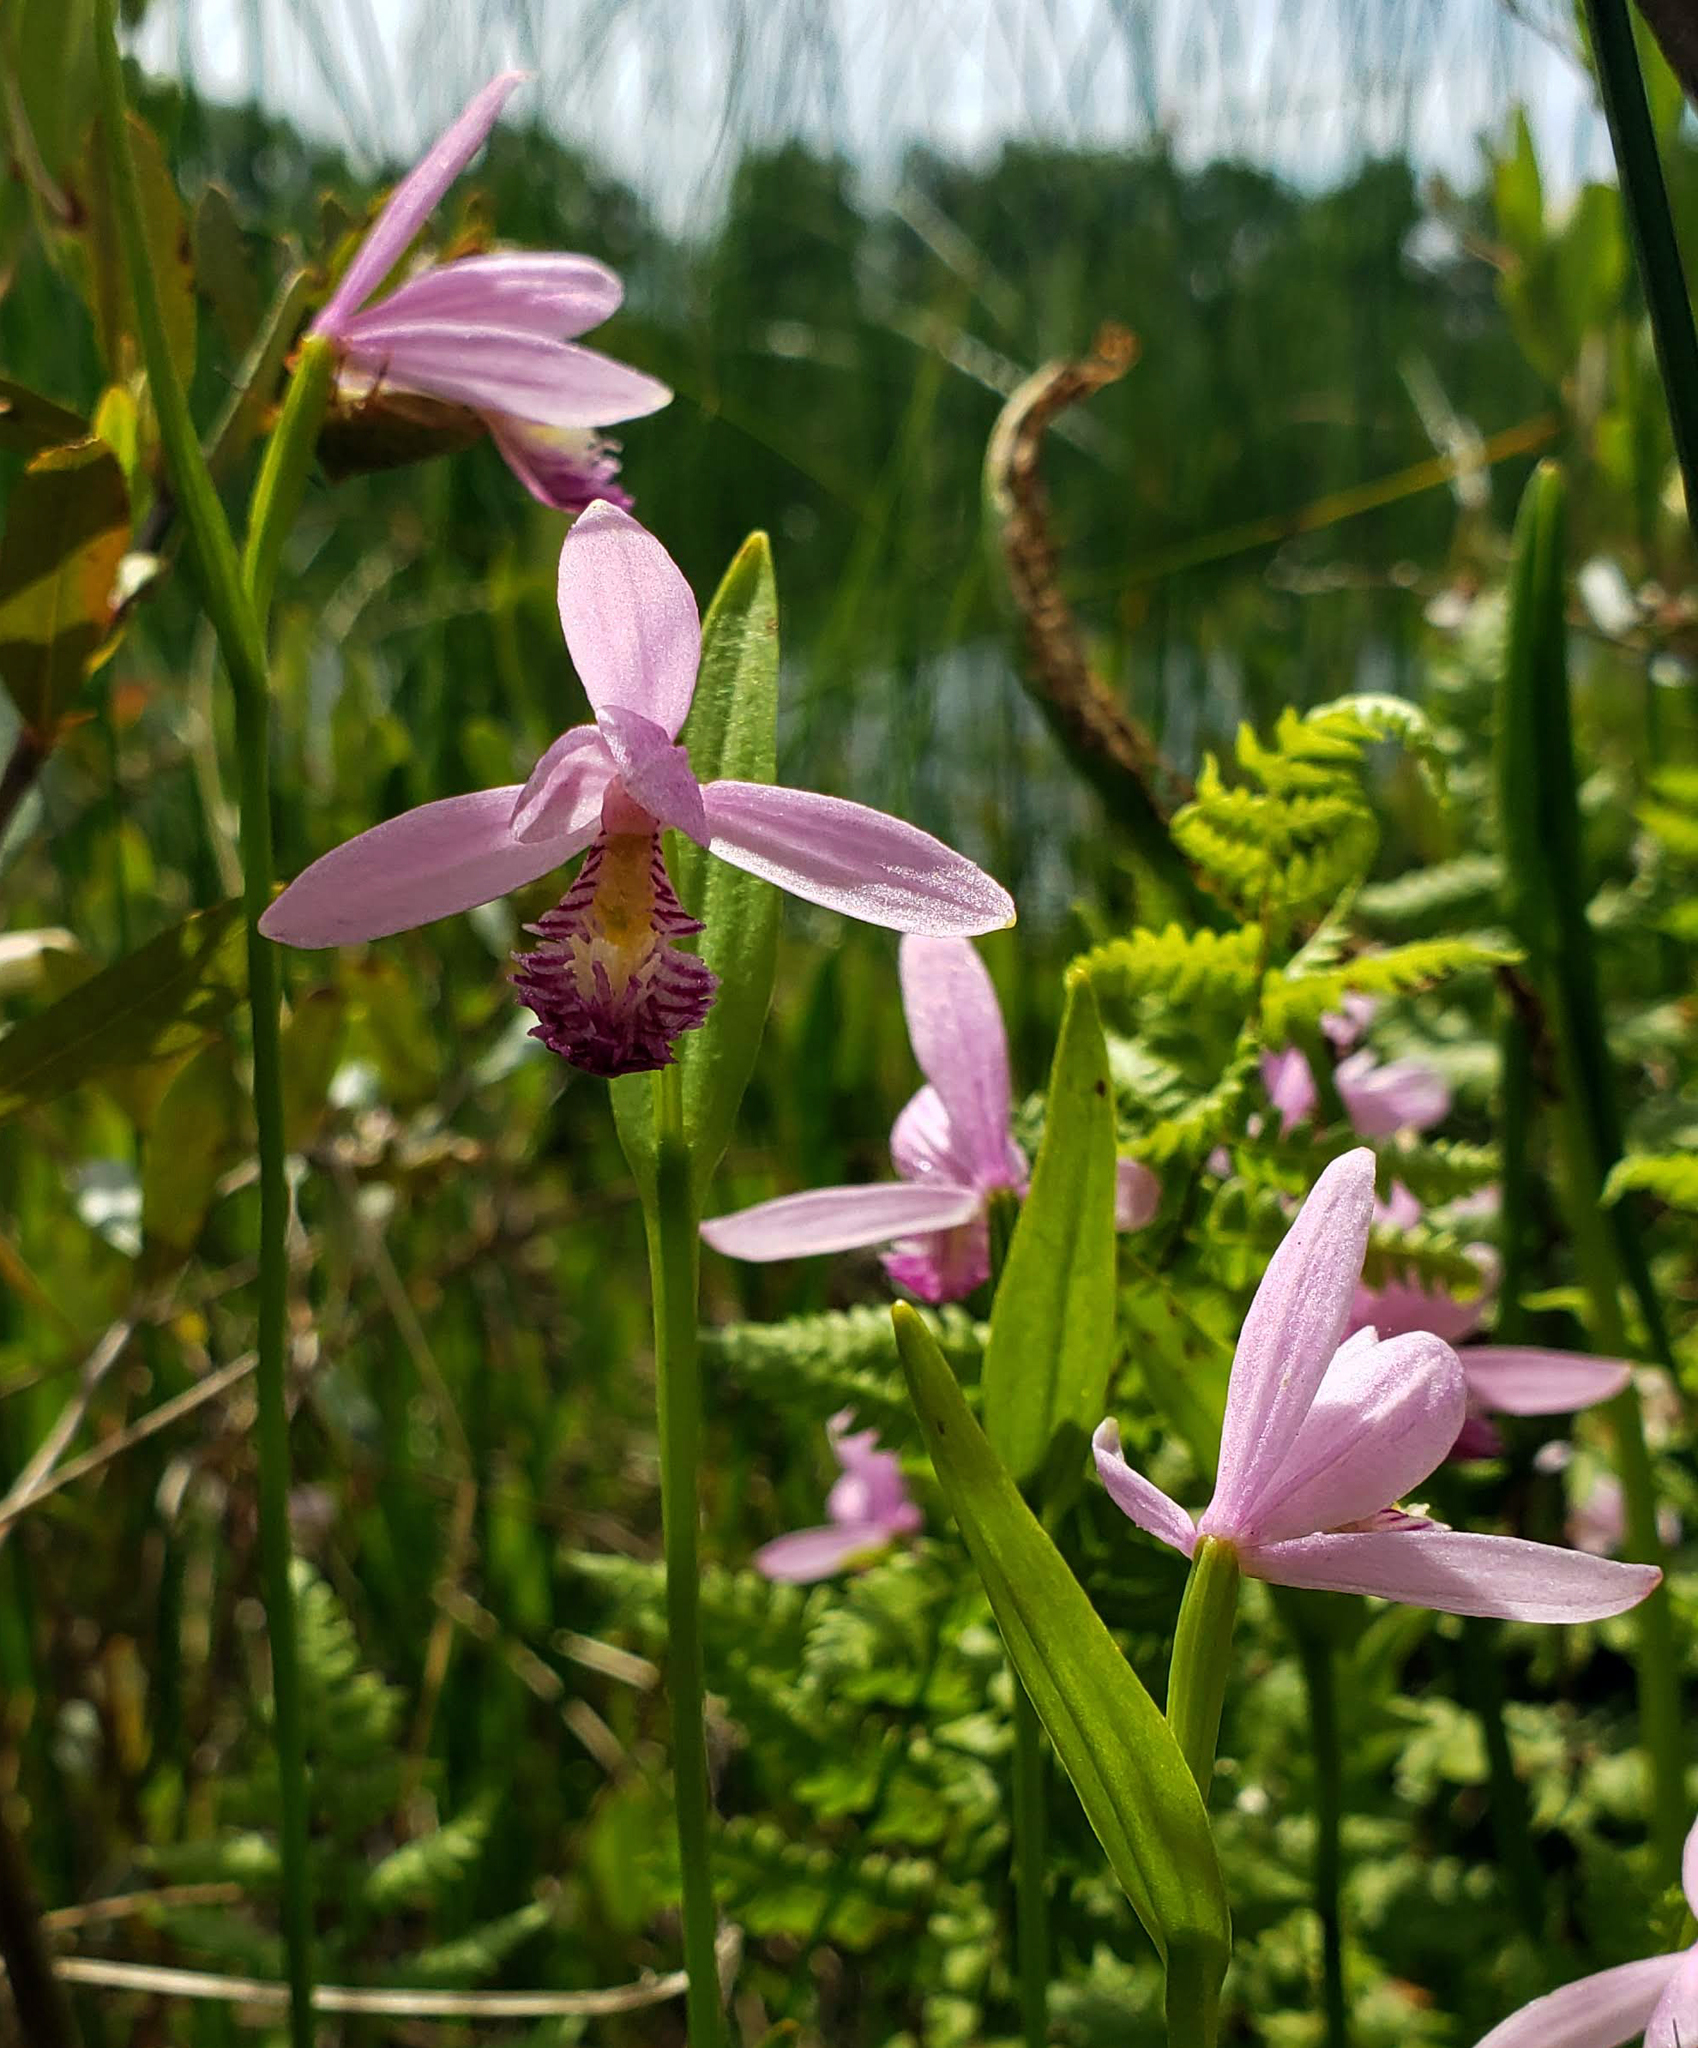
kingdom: Plantae
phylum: Tracheophyta
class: Liliopsida
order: Asparagales
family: Orchidaceae
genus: Pogonia
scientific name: Pogonia ophioglossoides
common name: Rose pogonia
